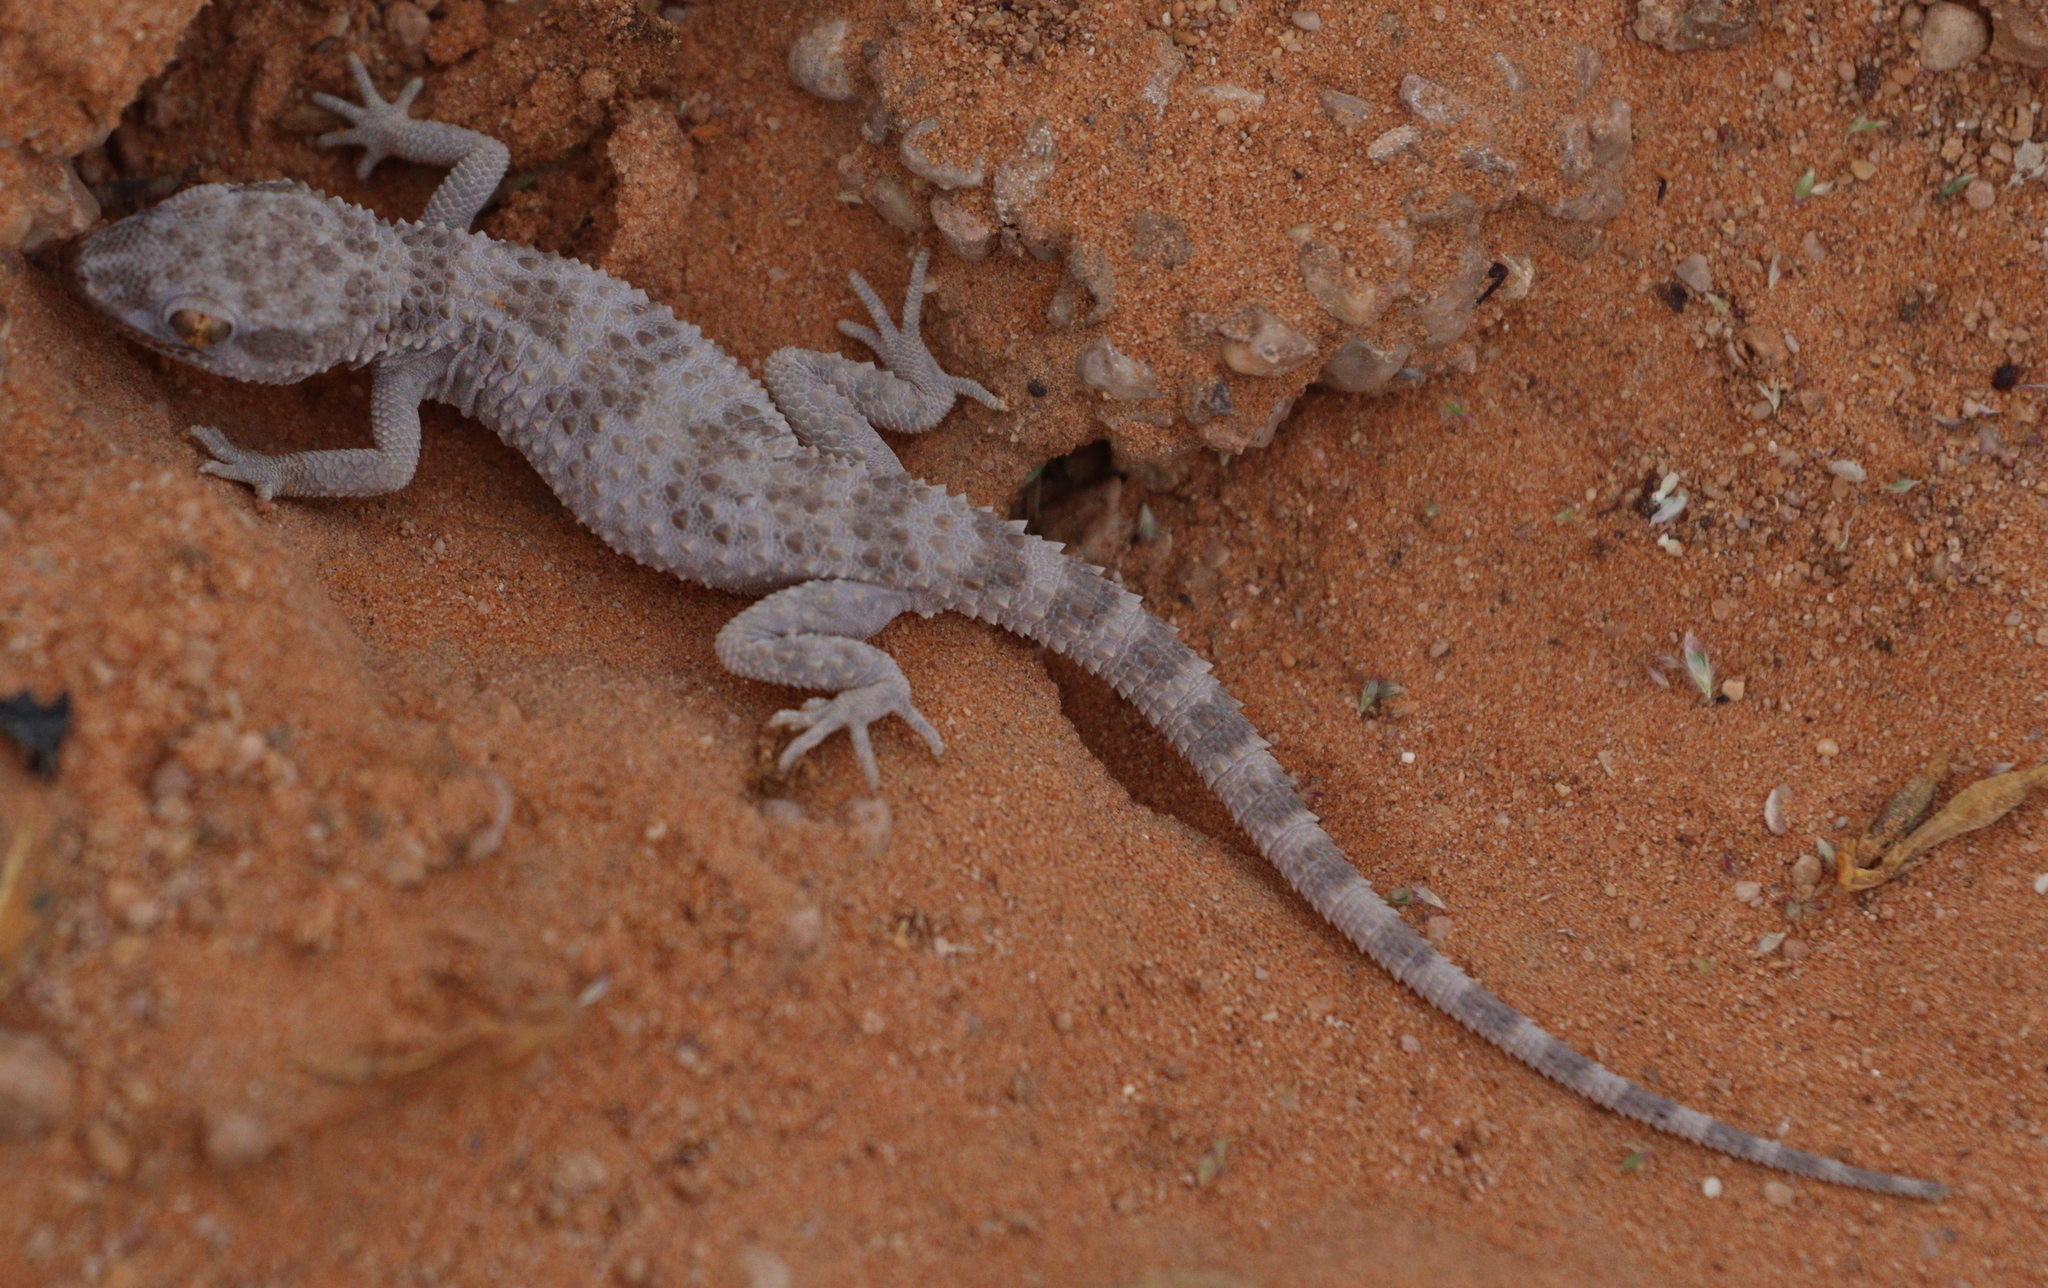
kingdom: Animalia
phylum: Chordata
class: Squamata
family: Gekkonidae
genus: Bunopus
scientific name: Bunopus tuberculatus
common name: Southern tuberculated gecko
